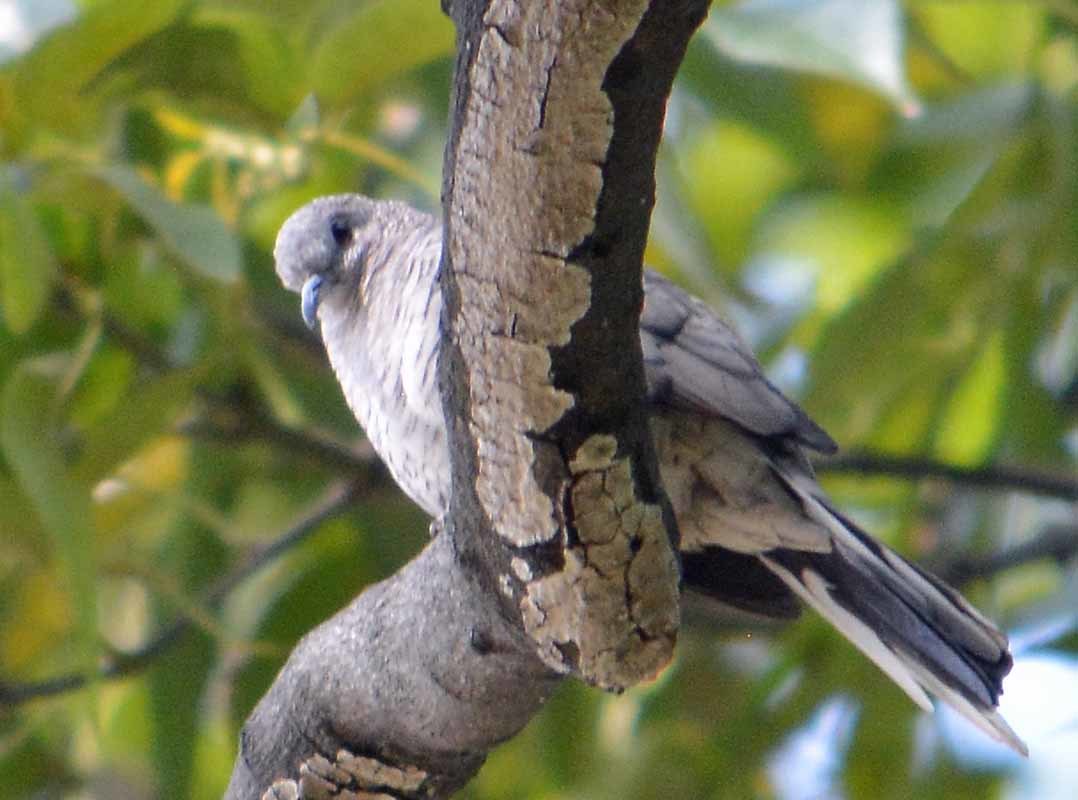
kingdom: Animalia
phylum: Chordata
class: Aves
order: Columbiformes
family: Columbidae
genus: Columbina
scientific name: Columbina inca
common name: Inca dove
